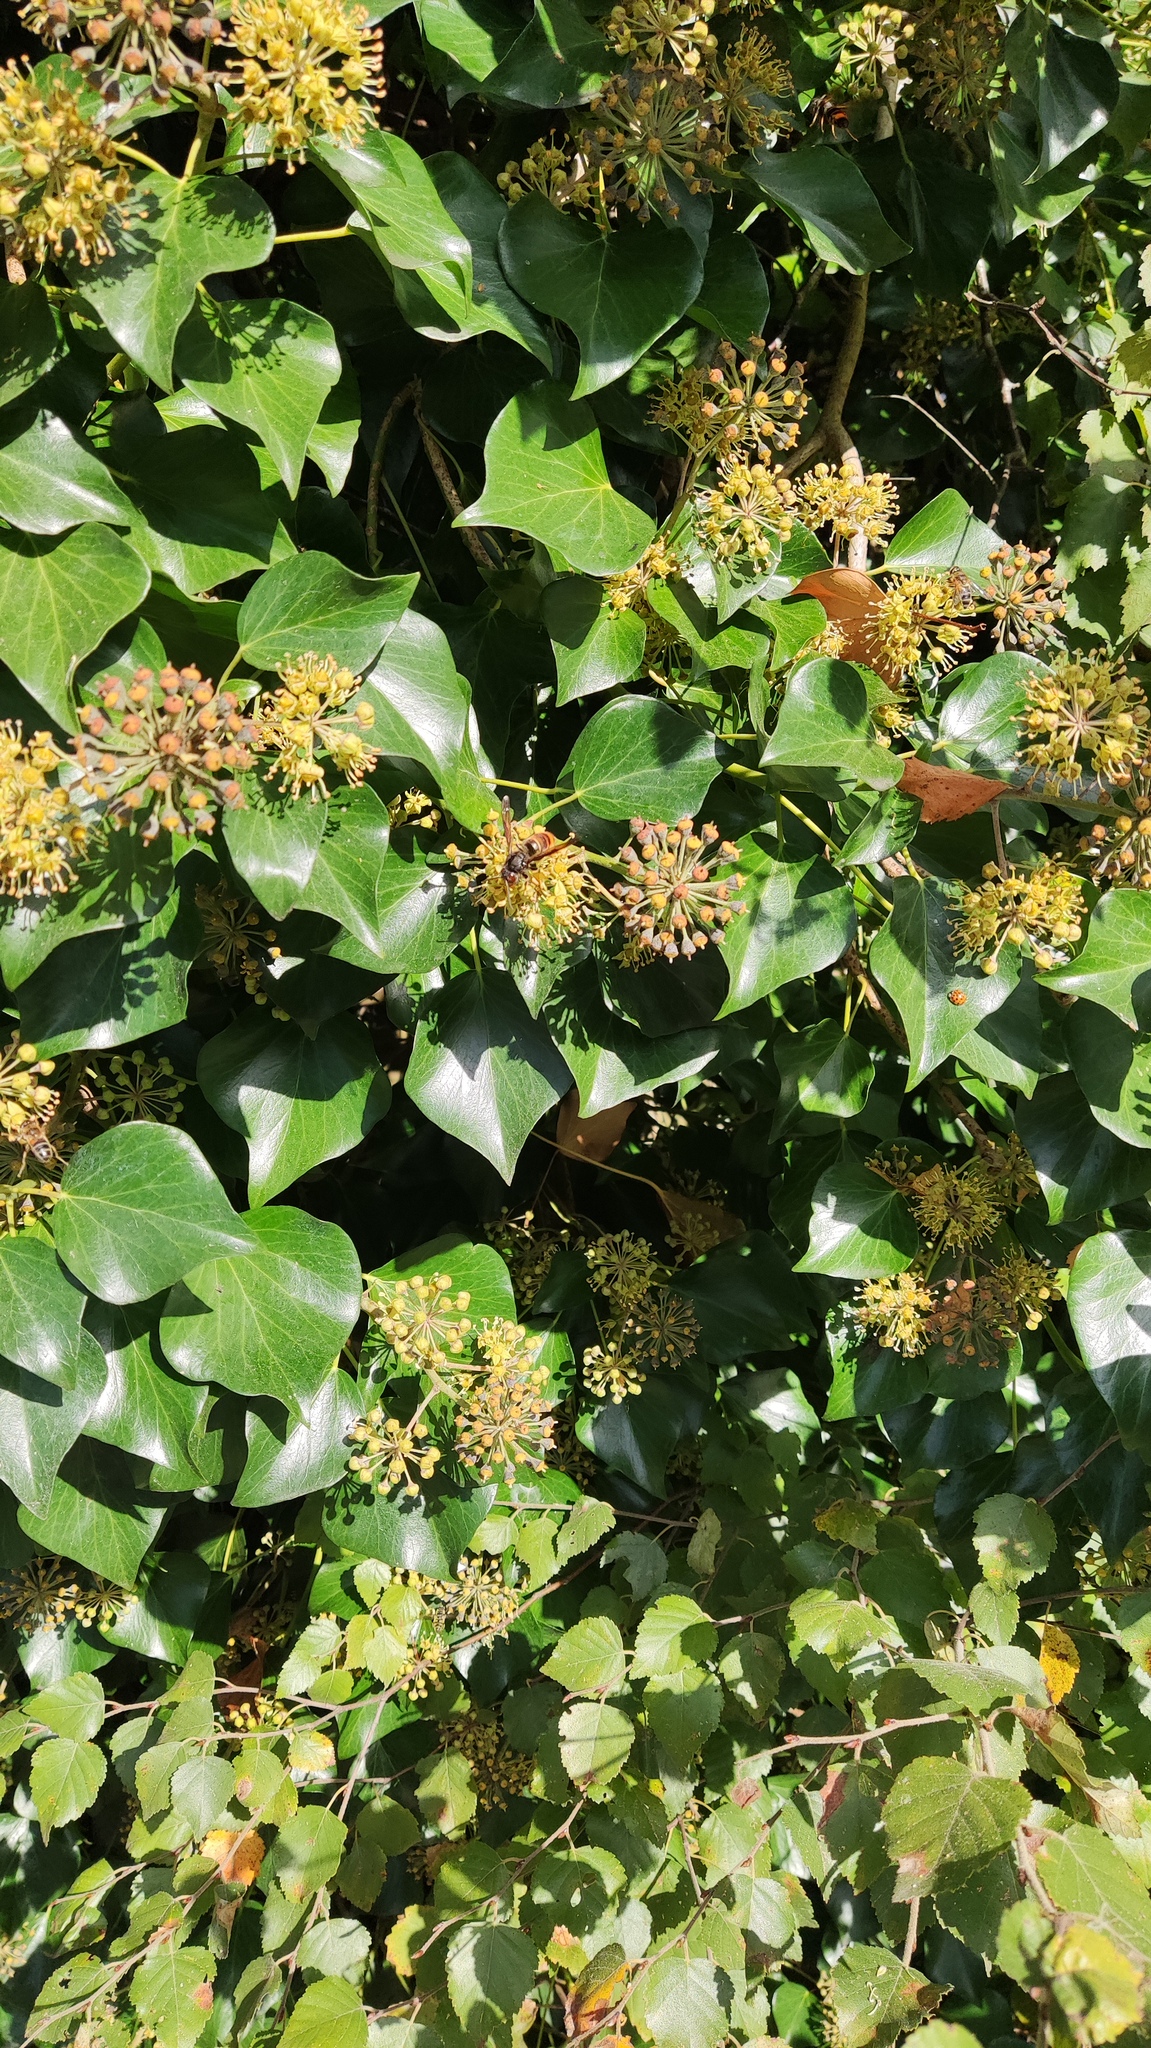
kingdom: Animalia
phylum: Arthropoda
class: Insecta
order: Hymenoptera
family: Vespidae
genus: Vespa
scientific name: Vespa velutina
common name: Asian hornet
